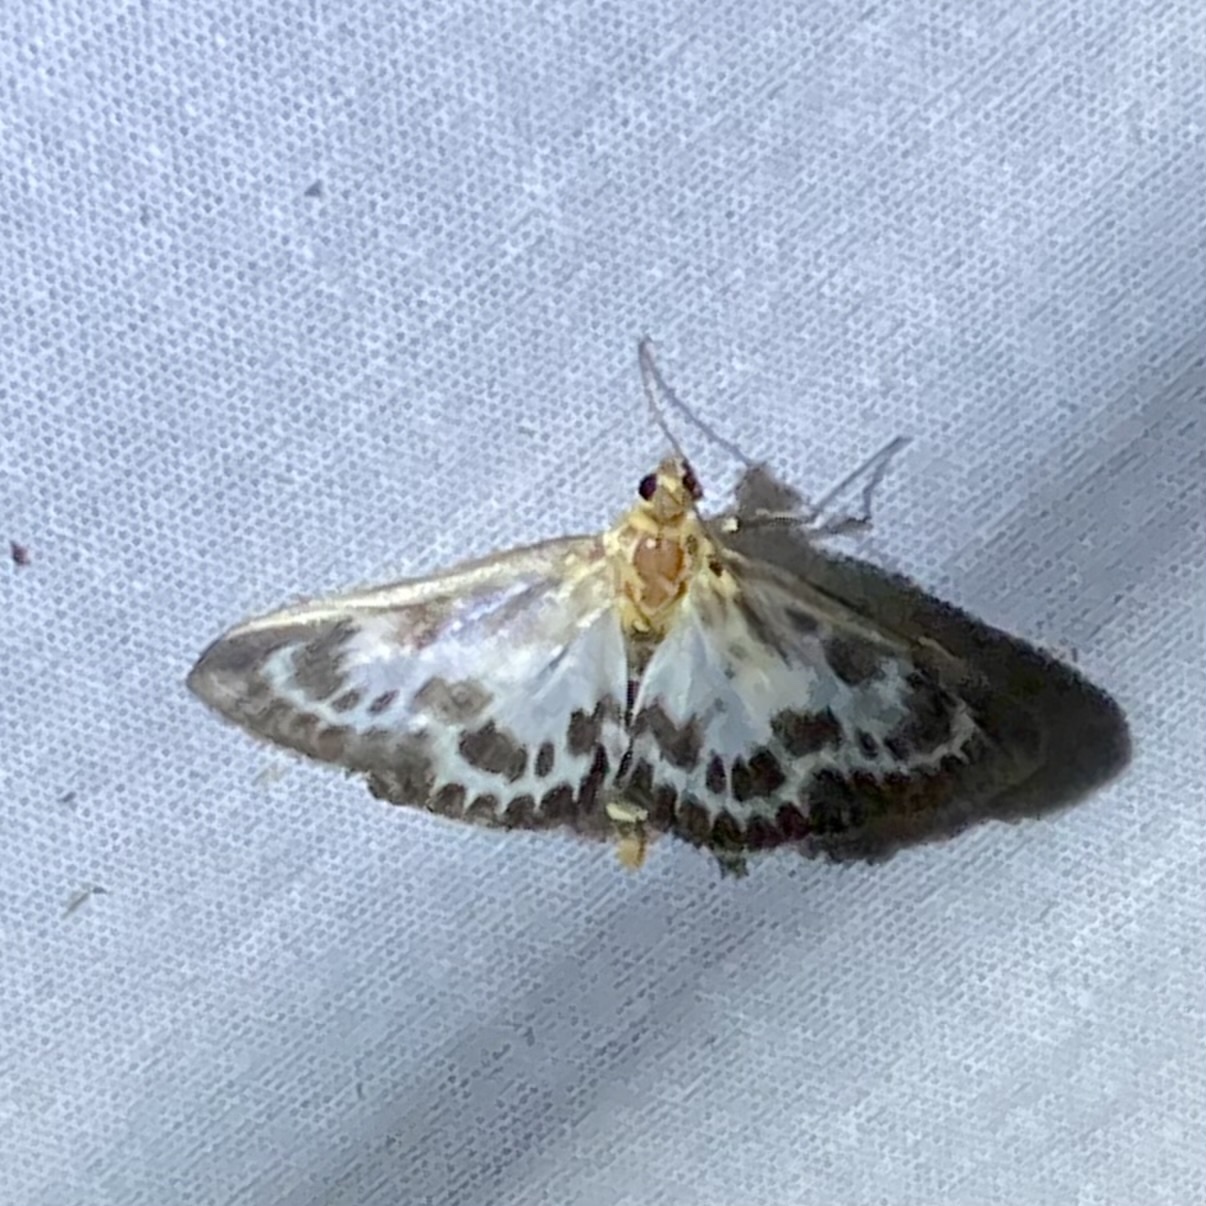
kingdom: Animalia
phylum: Arthropoda
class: Insecta
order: Lepidoptera
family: Crambidae
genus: Anania
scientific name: Anania hortulata
